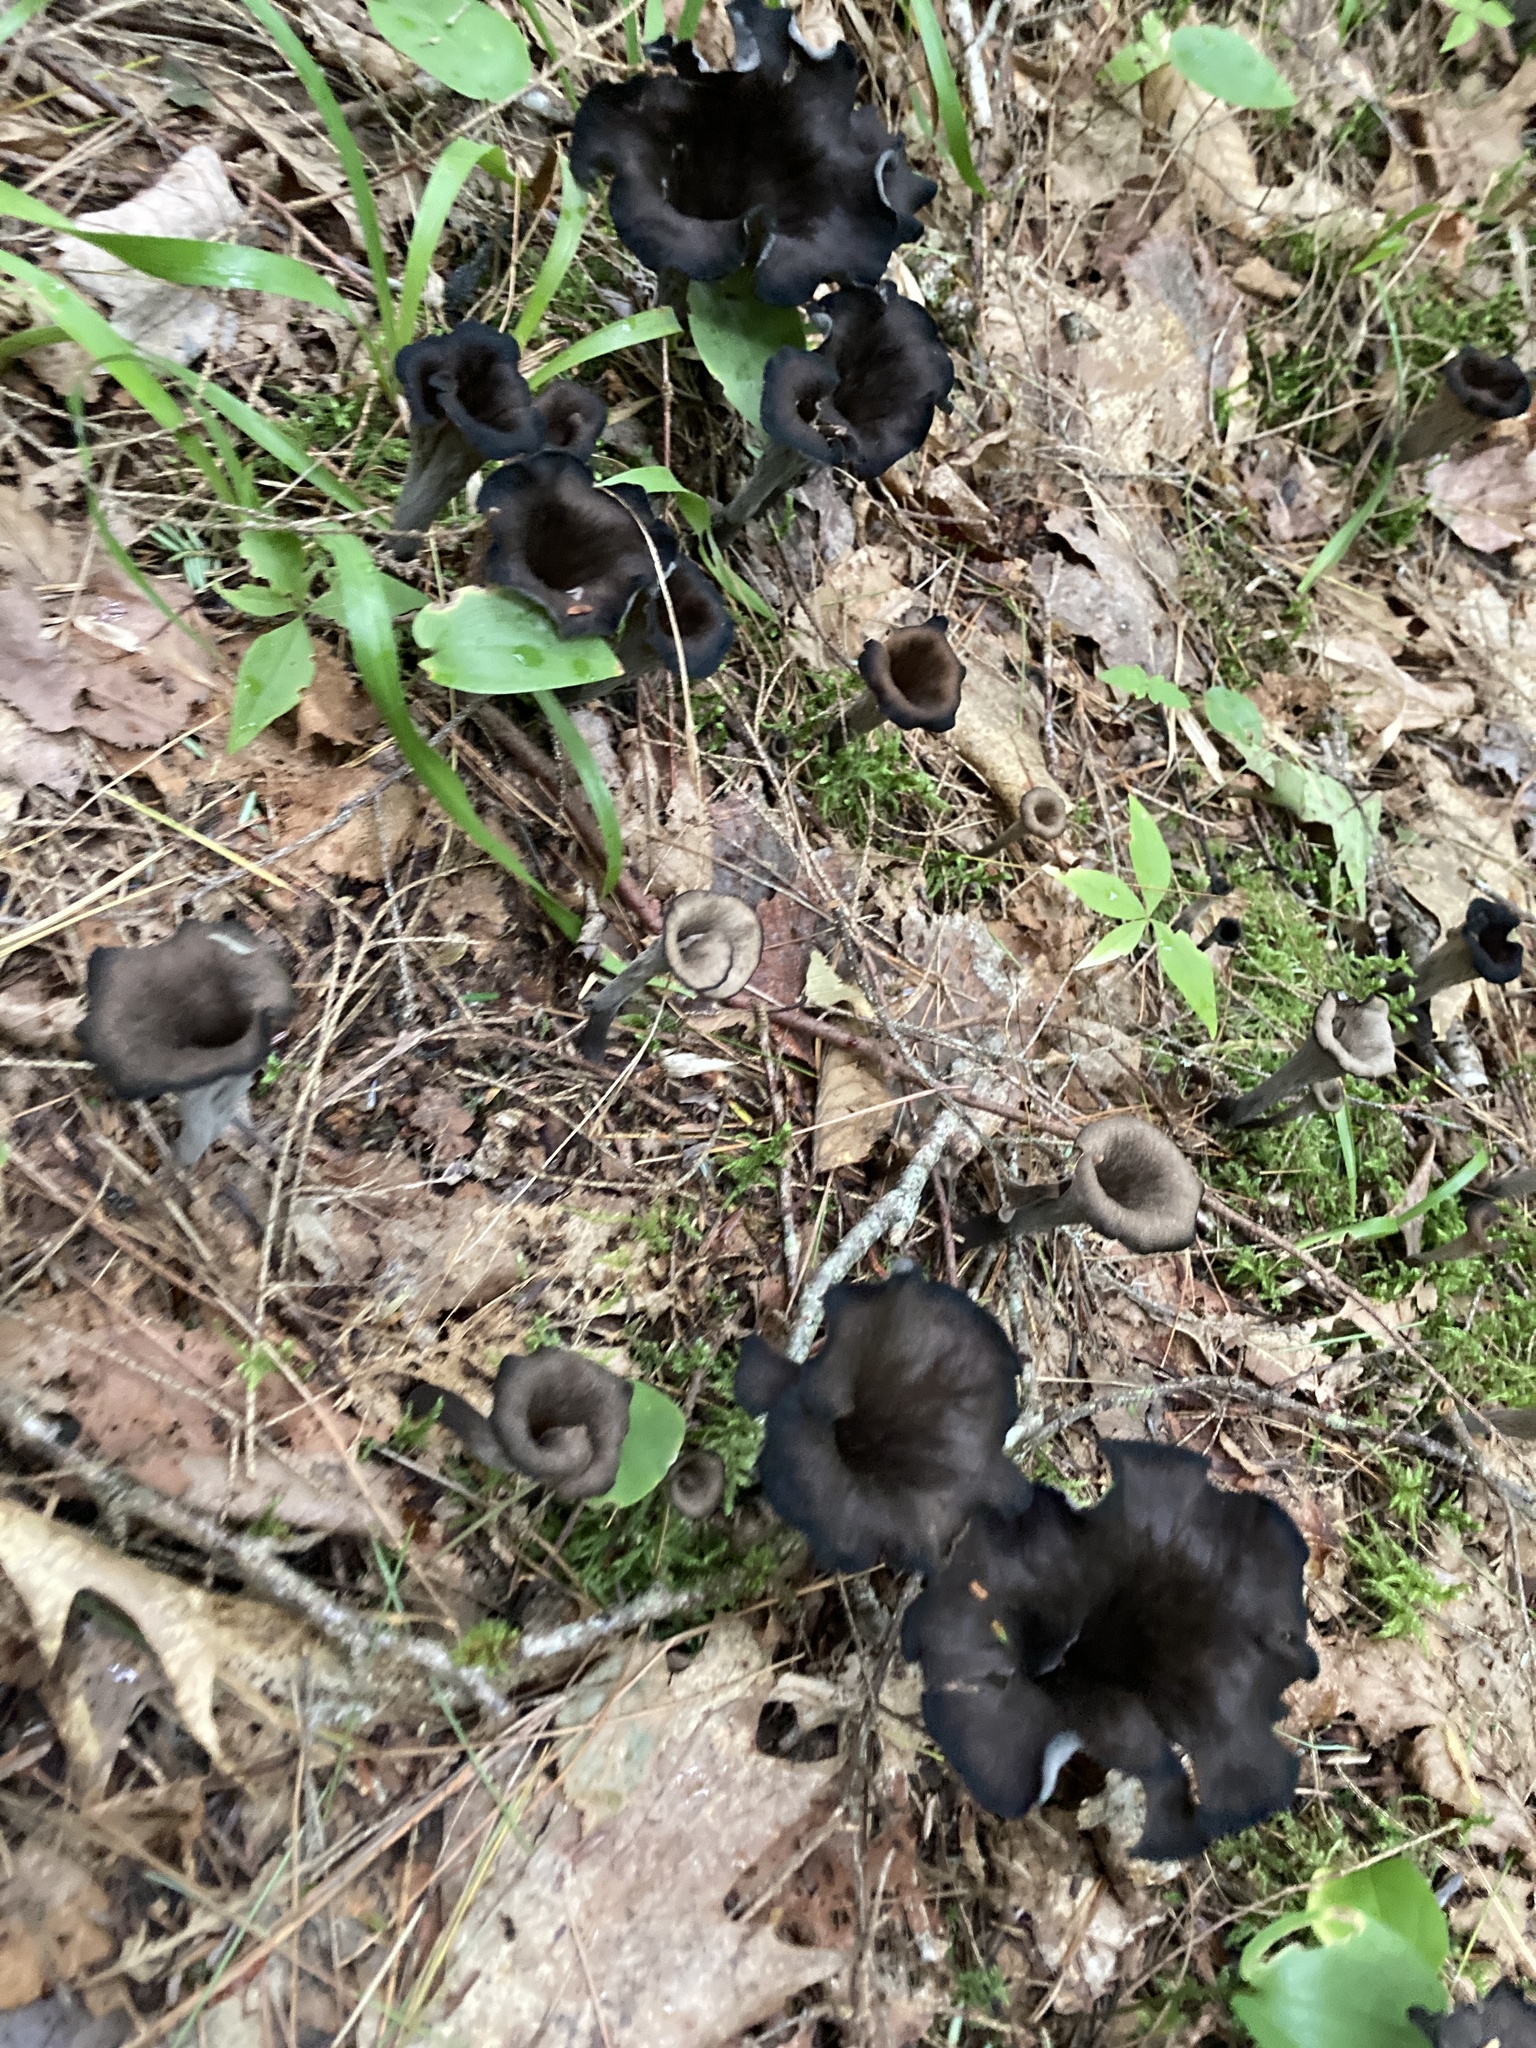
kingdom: Fungi
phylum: Basidiomycota
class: Agaricomycetes
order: Cantharellales
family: Hydnaceae
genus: Craterellus
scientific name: Craterellus cornucopioides
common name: Horn of plenty
